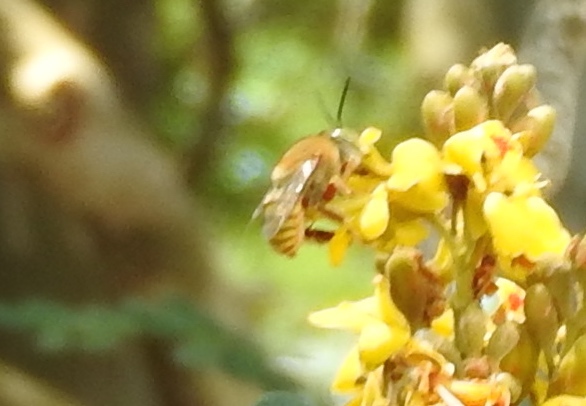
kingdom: Animalia
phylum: Arthropoda
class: Insecta
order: Hymenoptera
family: Apidae
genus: Centris
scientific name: Centris aethyctera
